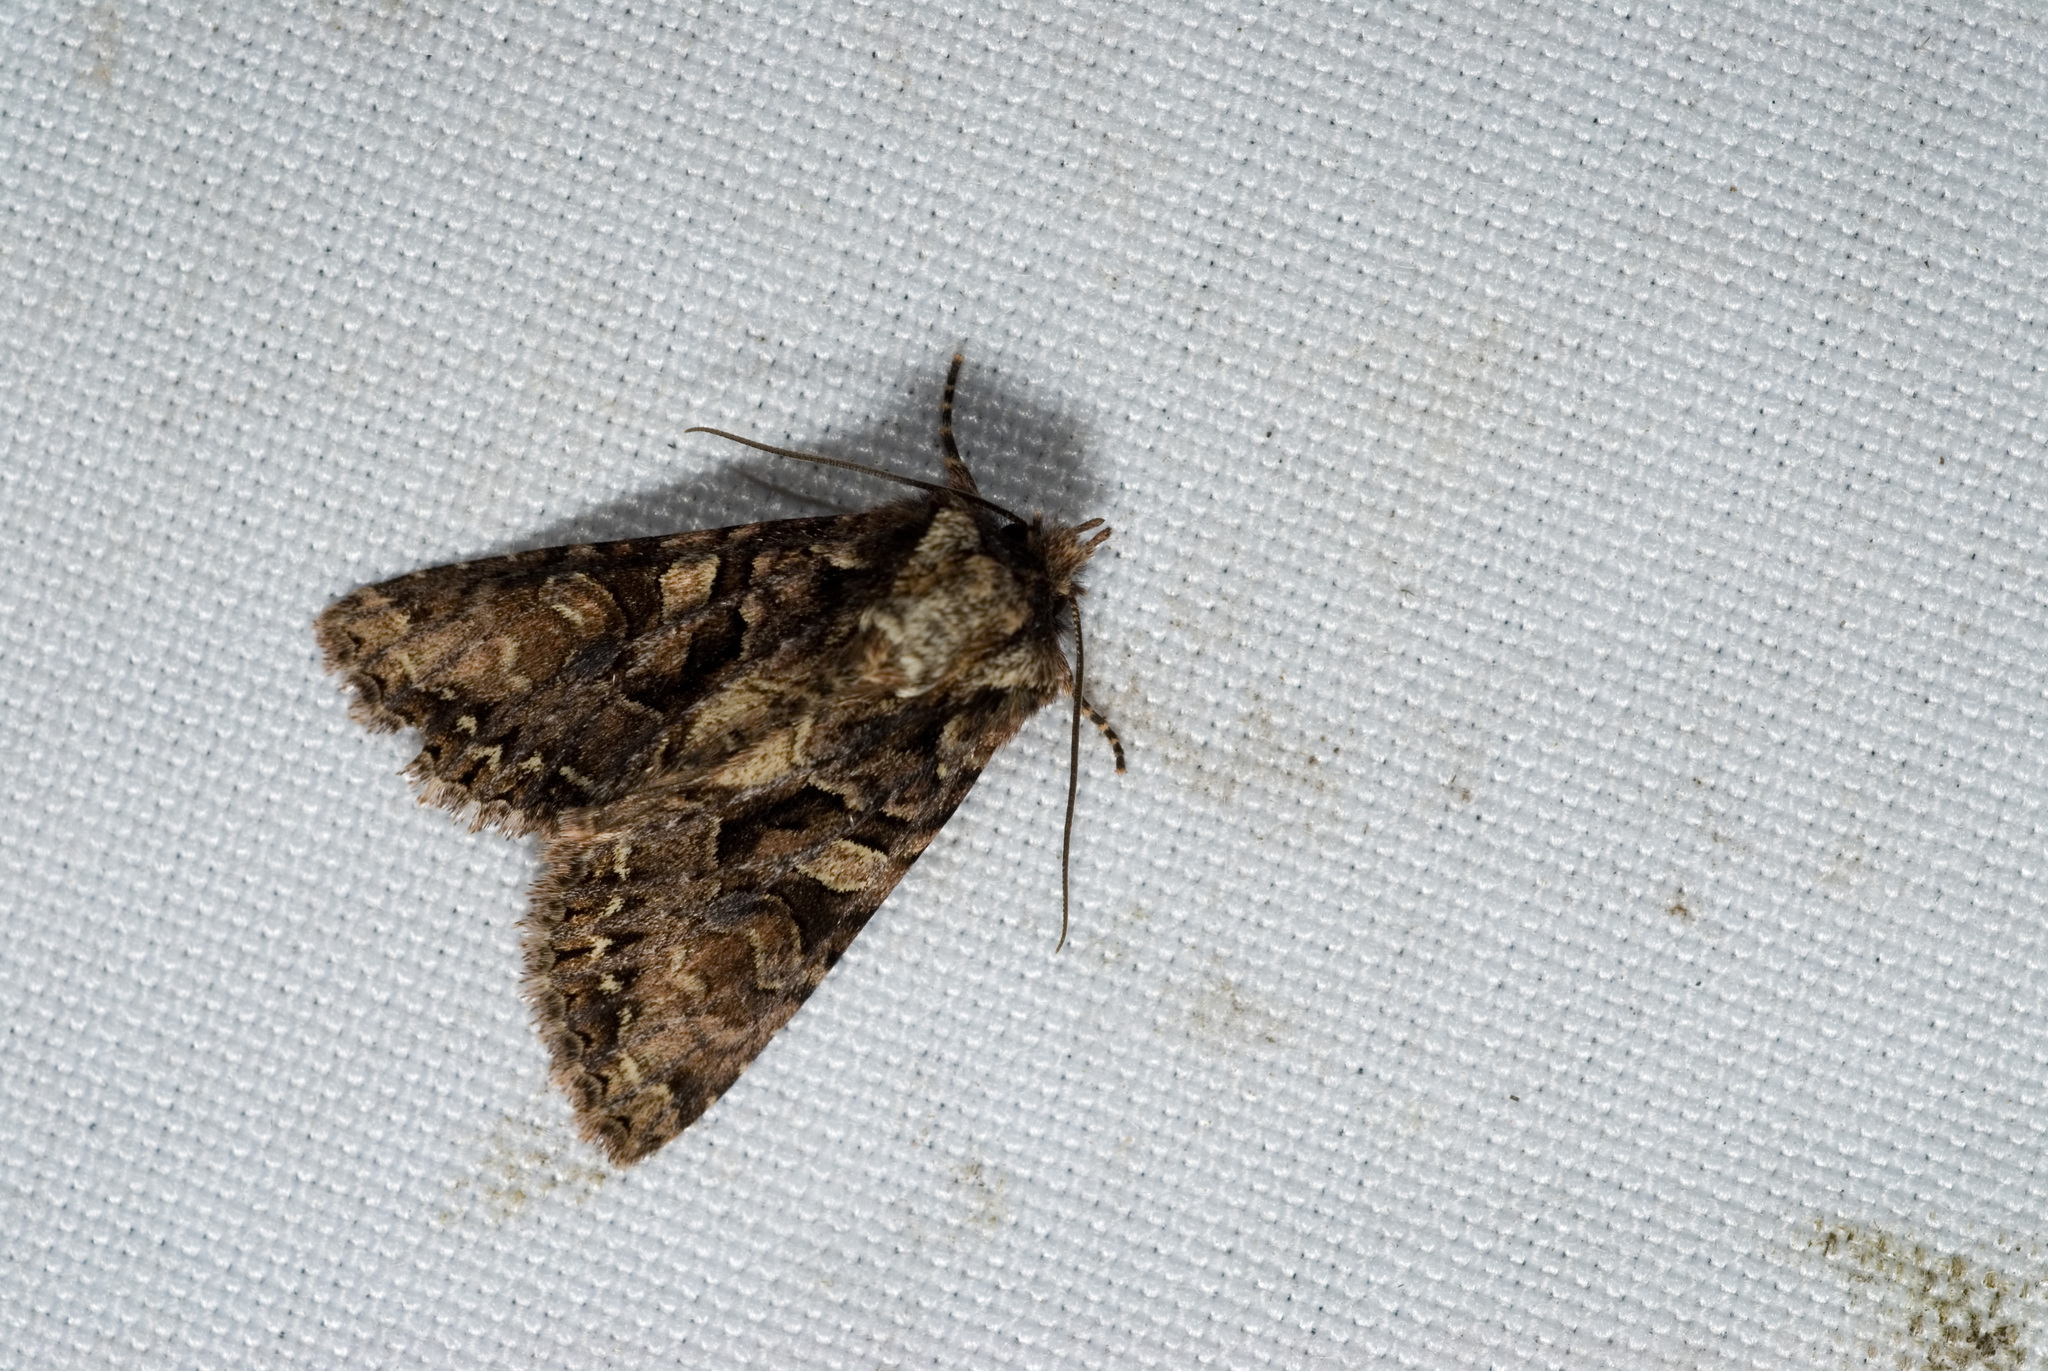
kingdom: Animalia
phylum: Arthropoda
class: Insecta
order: Lepidoptera
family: Noctuidae
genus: Nyctycia
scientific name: Nyctycia plagiogramma
